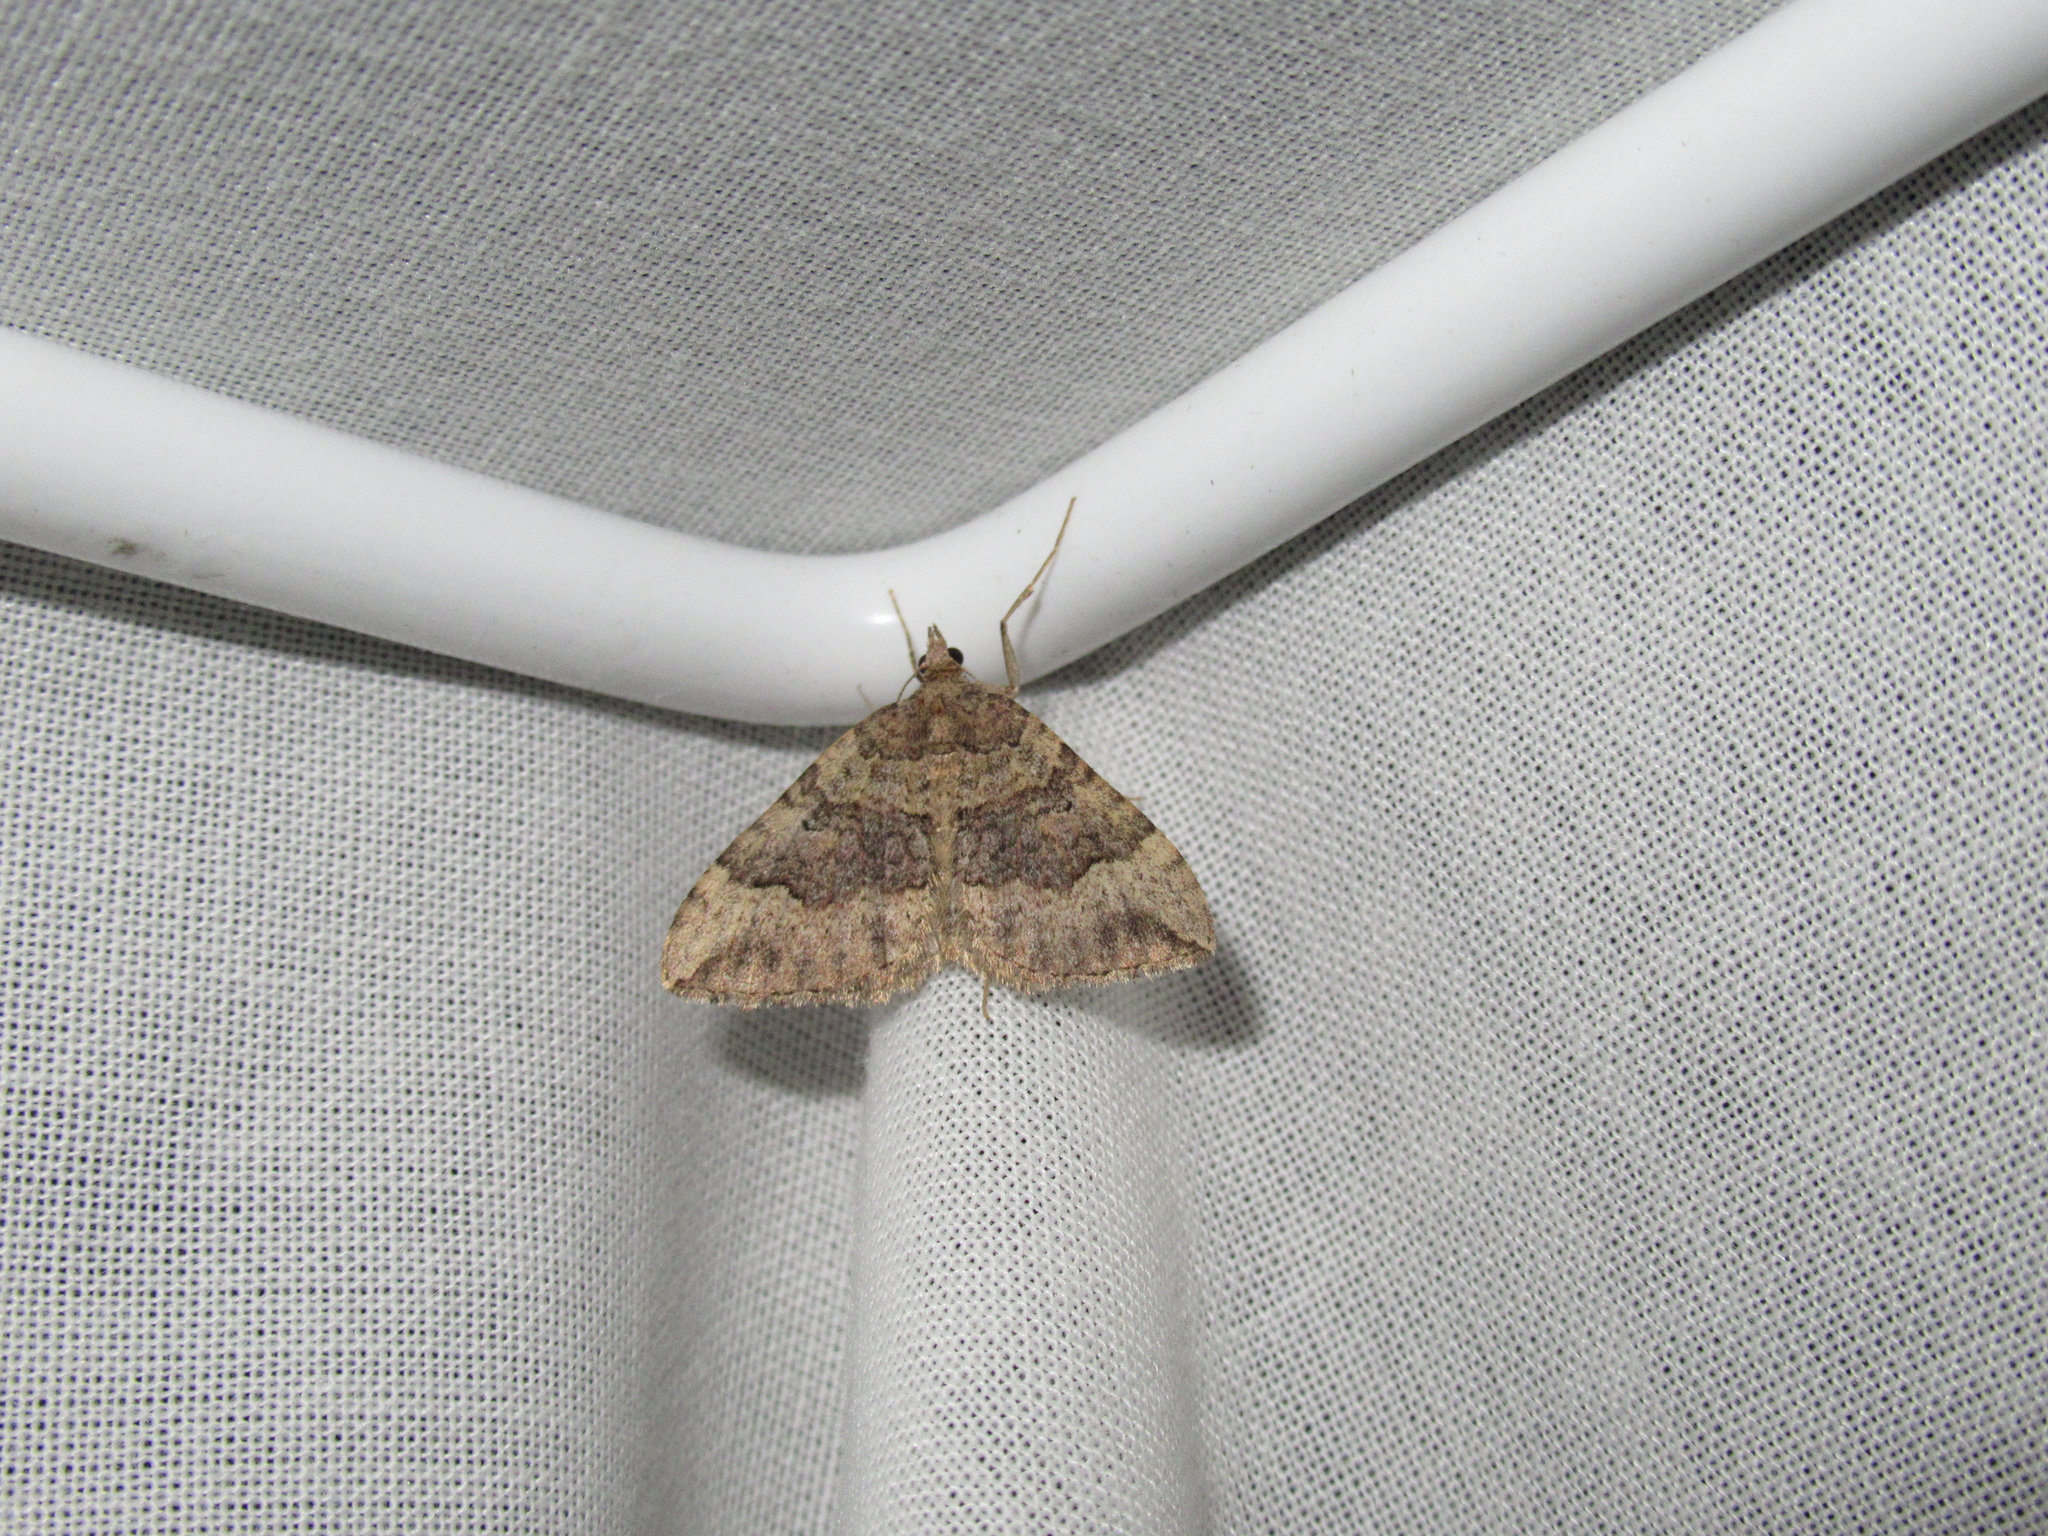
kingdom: Animalia
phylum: Arthropoda
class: Insecta
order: Lepidoptera
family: Geometridae
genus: Epyaxa
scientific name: Epyaxa rosearia
